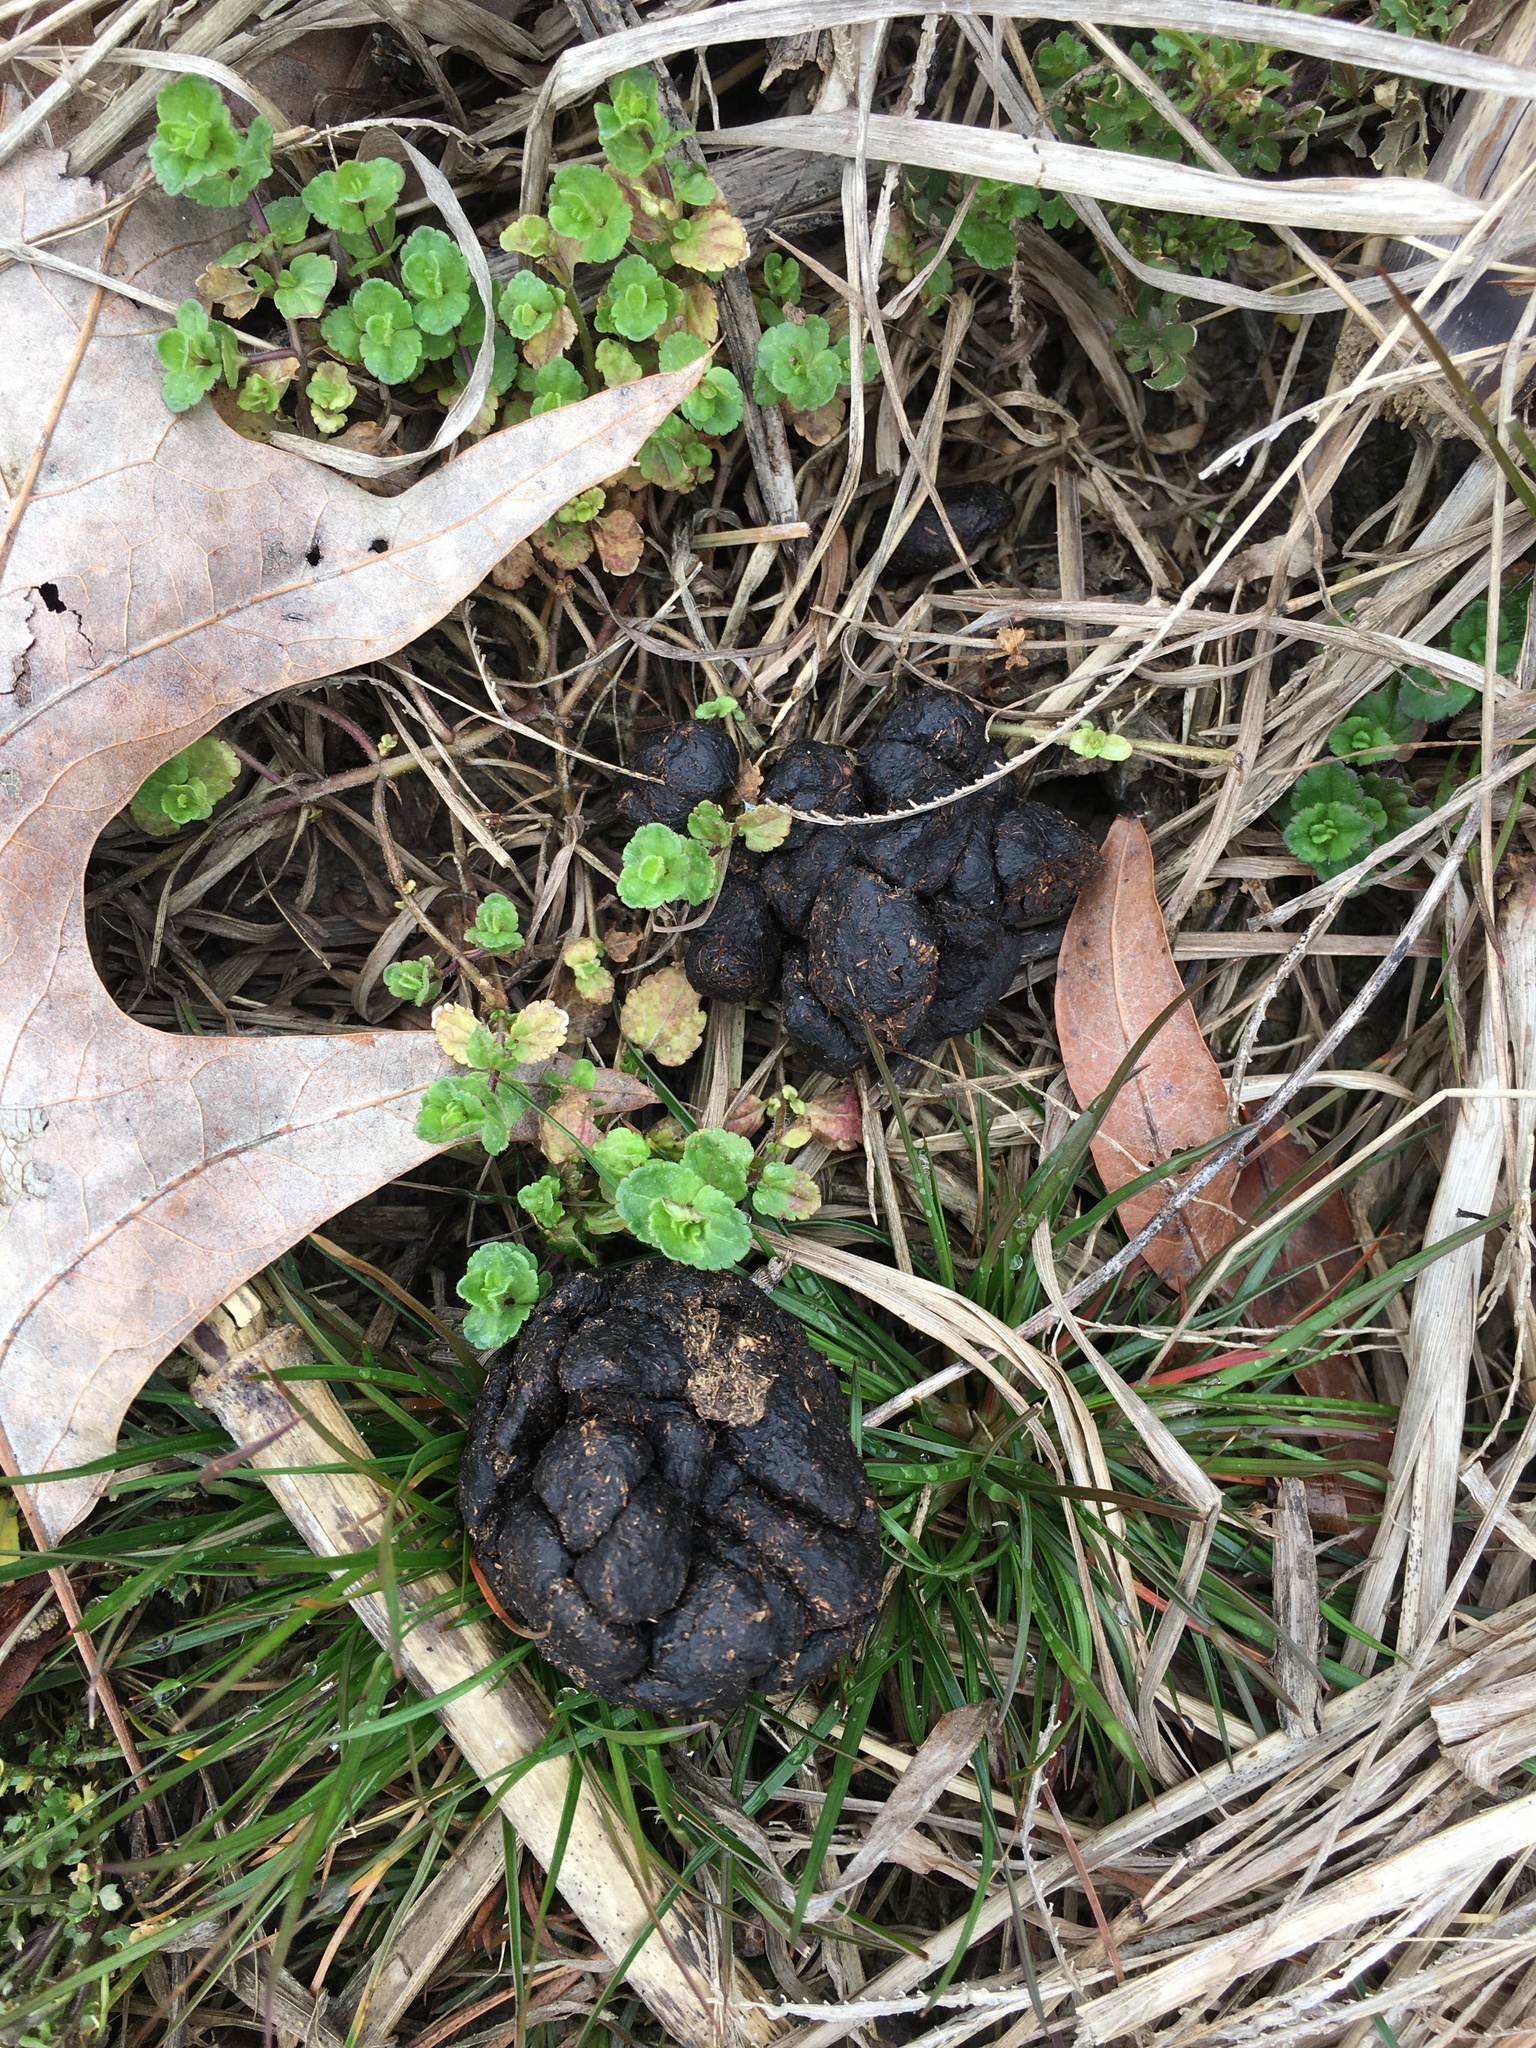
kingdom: Animalia
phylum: Chordata
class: Mammalia
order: Artiodactyla
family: Cervidae
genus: Odocoileus
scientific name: Odocoileus virginianus
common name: White-tailed deer
